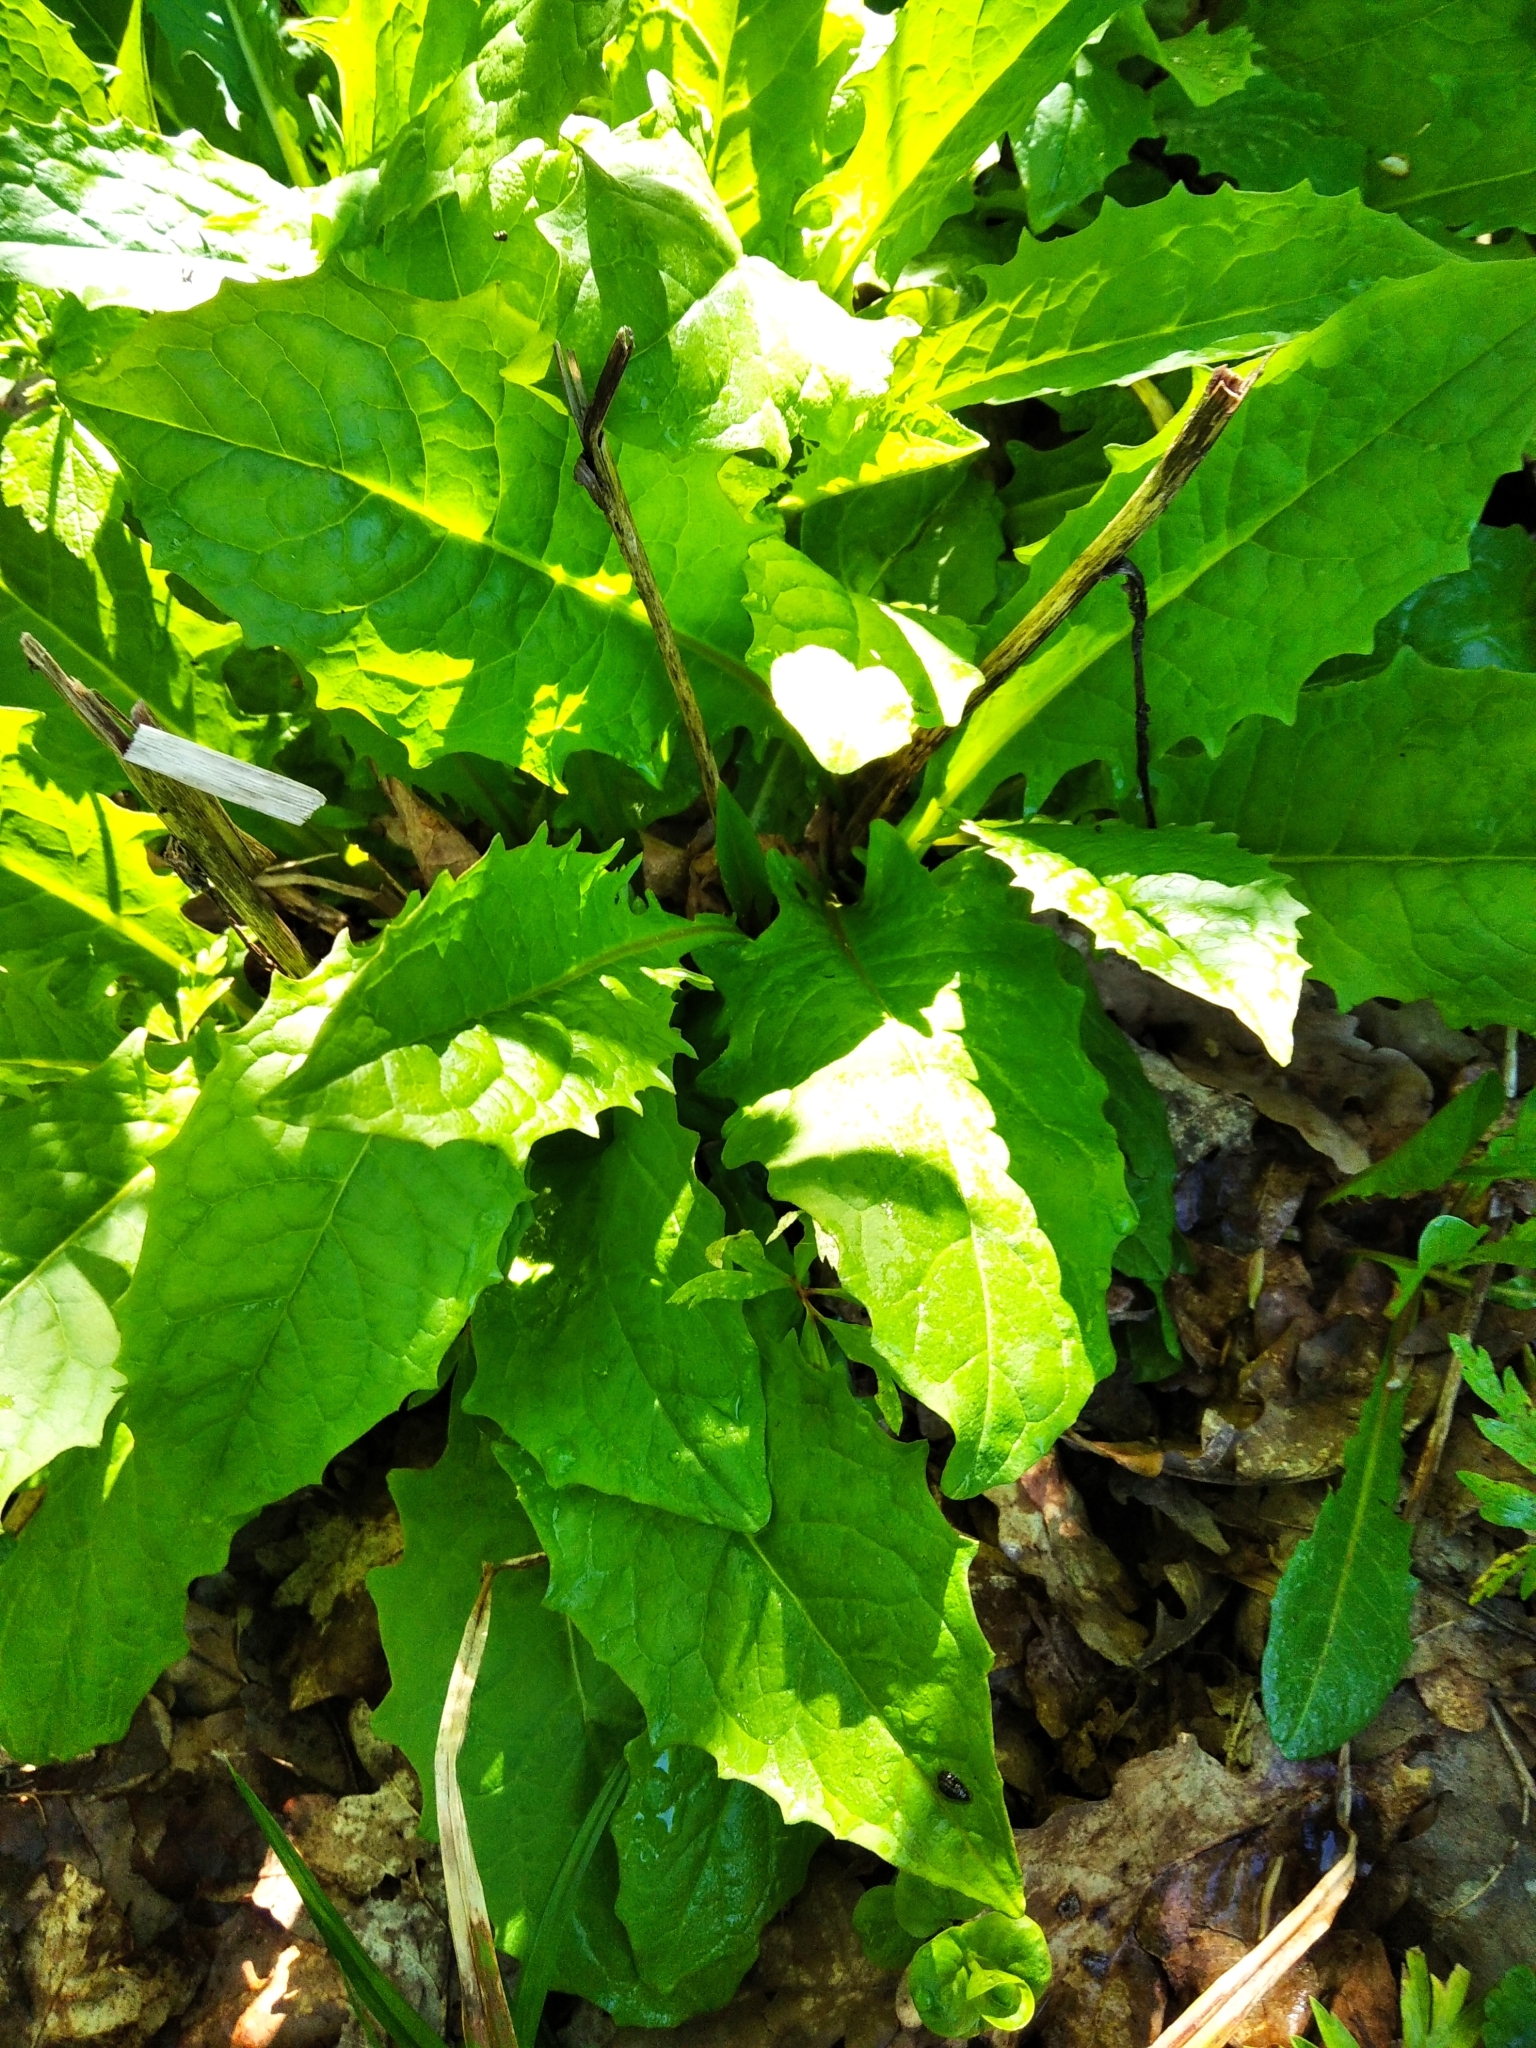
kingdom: Plantae
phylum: Tracheophyta
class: Magnoliopsida
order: Asterales
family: Asteraceae
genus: Crepis
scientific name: Crepis paludosa
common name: Marsh hawk's-beard
